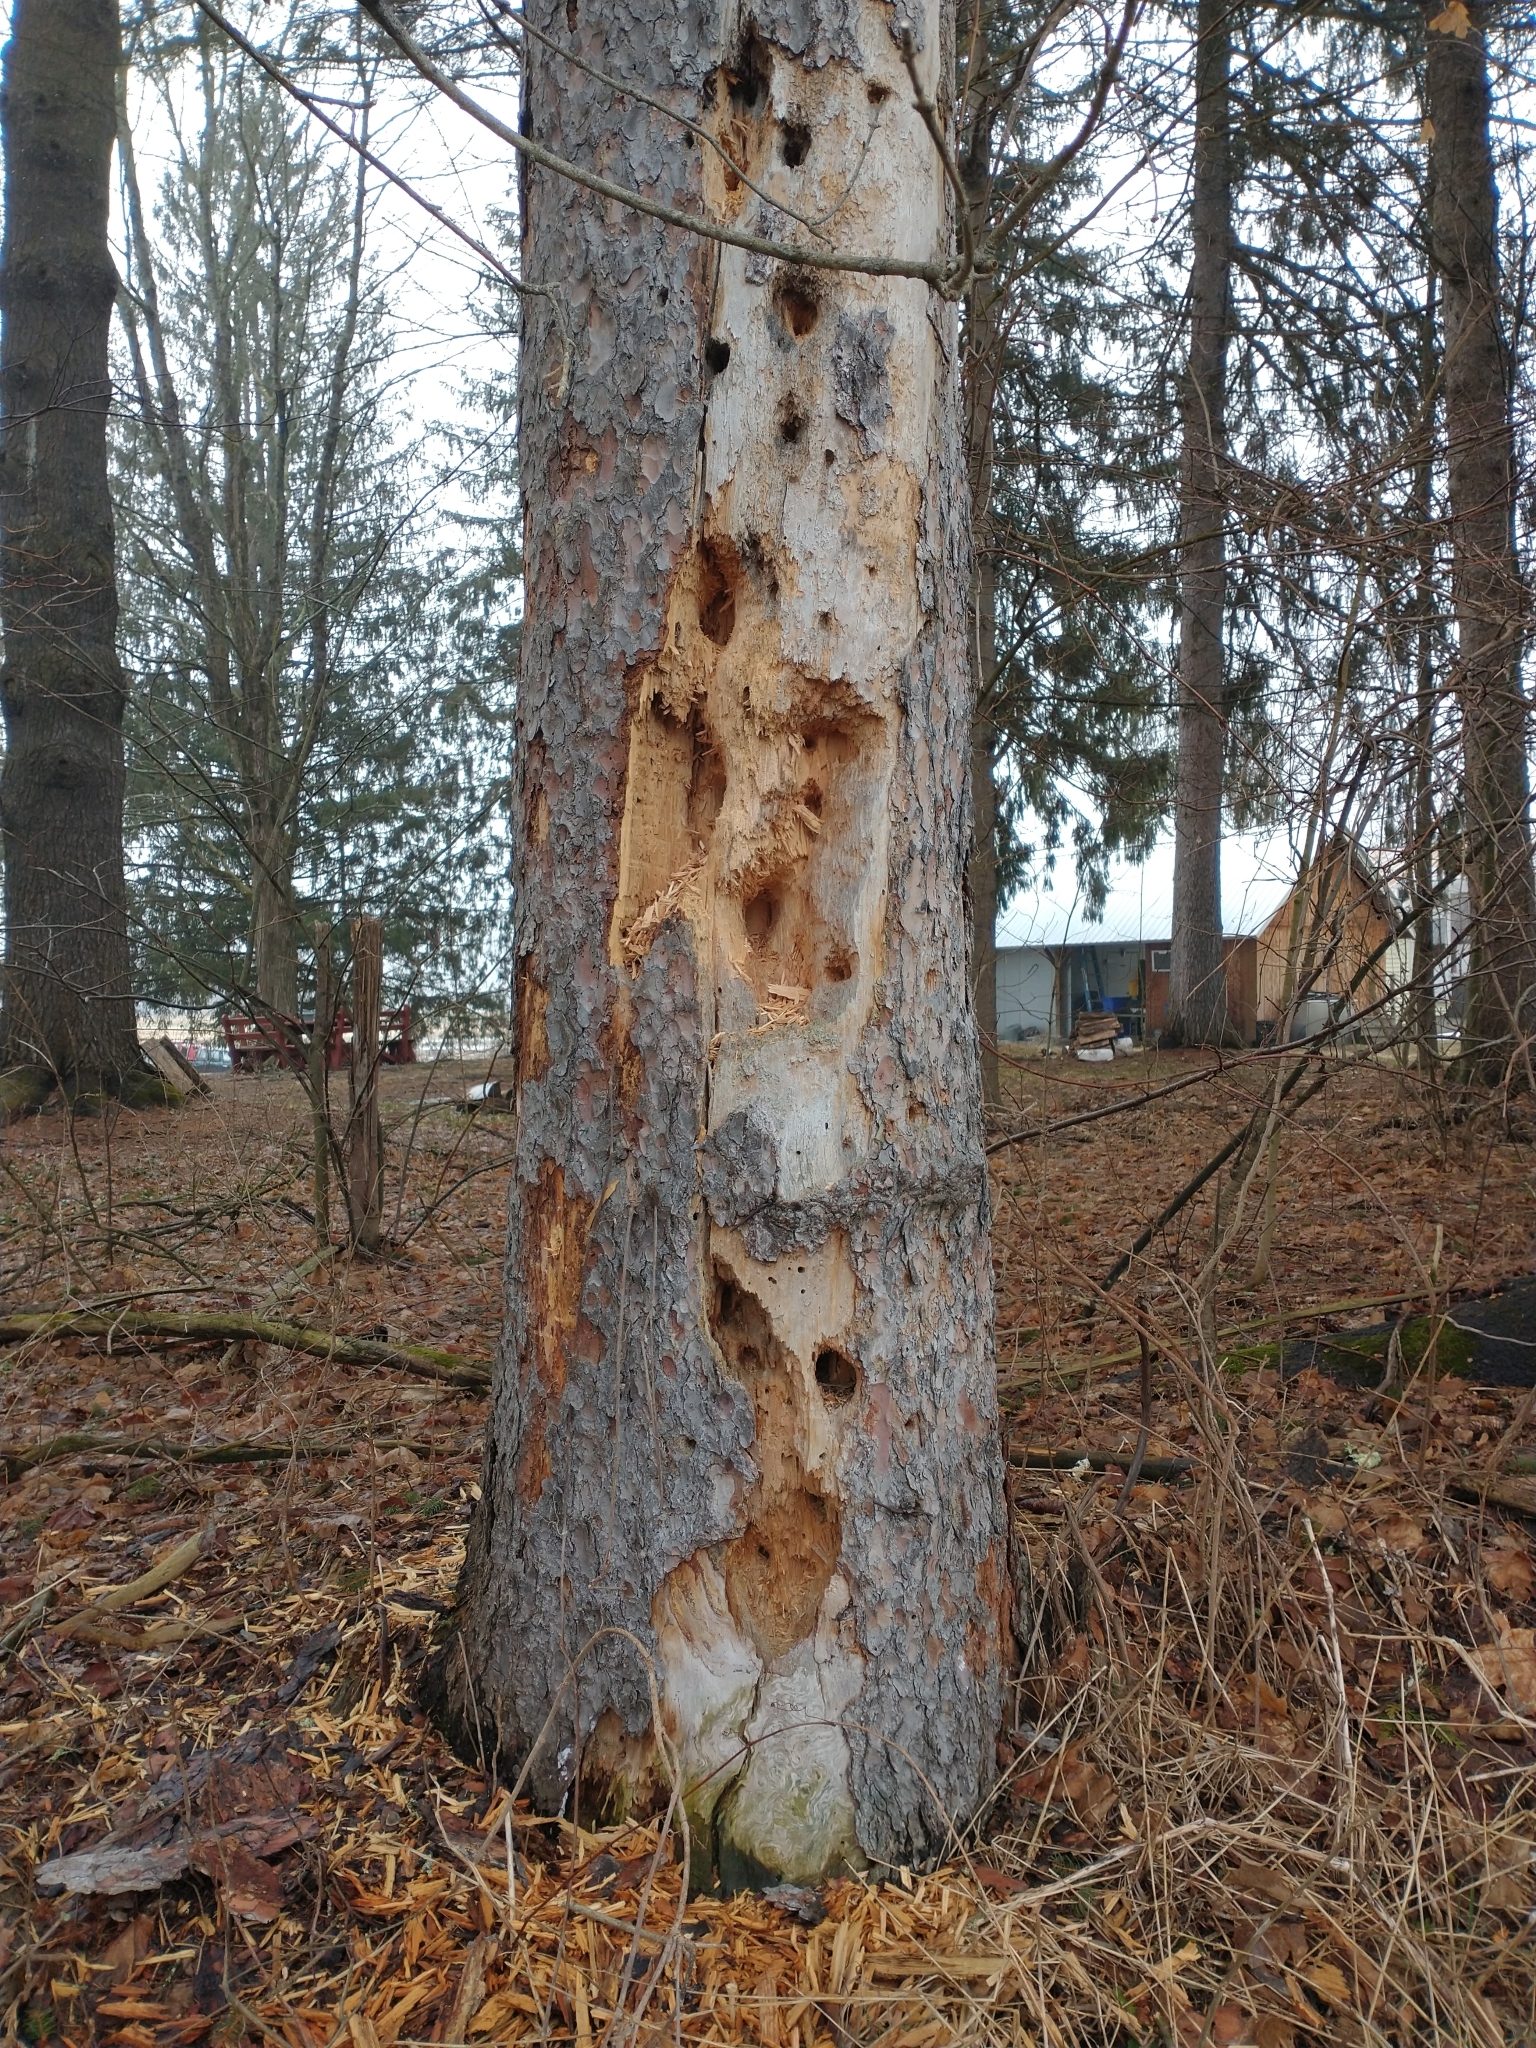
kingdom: Animalia
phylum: Chordata
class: Aves
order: Piciformes
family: Picidae
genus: Dryocopus
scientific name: Dryocopus pileatus
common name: Pileated woodpecker
